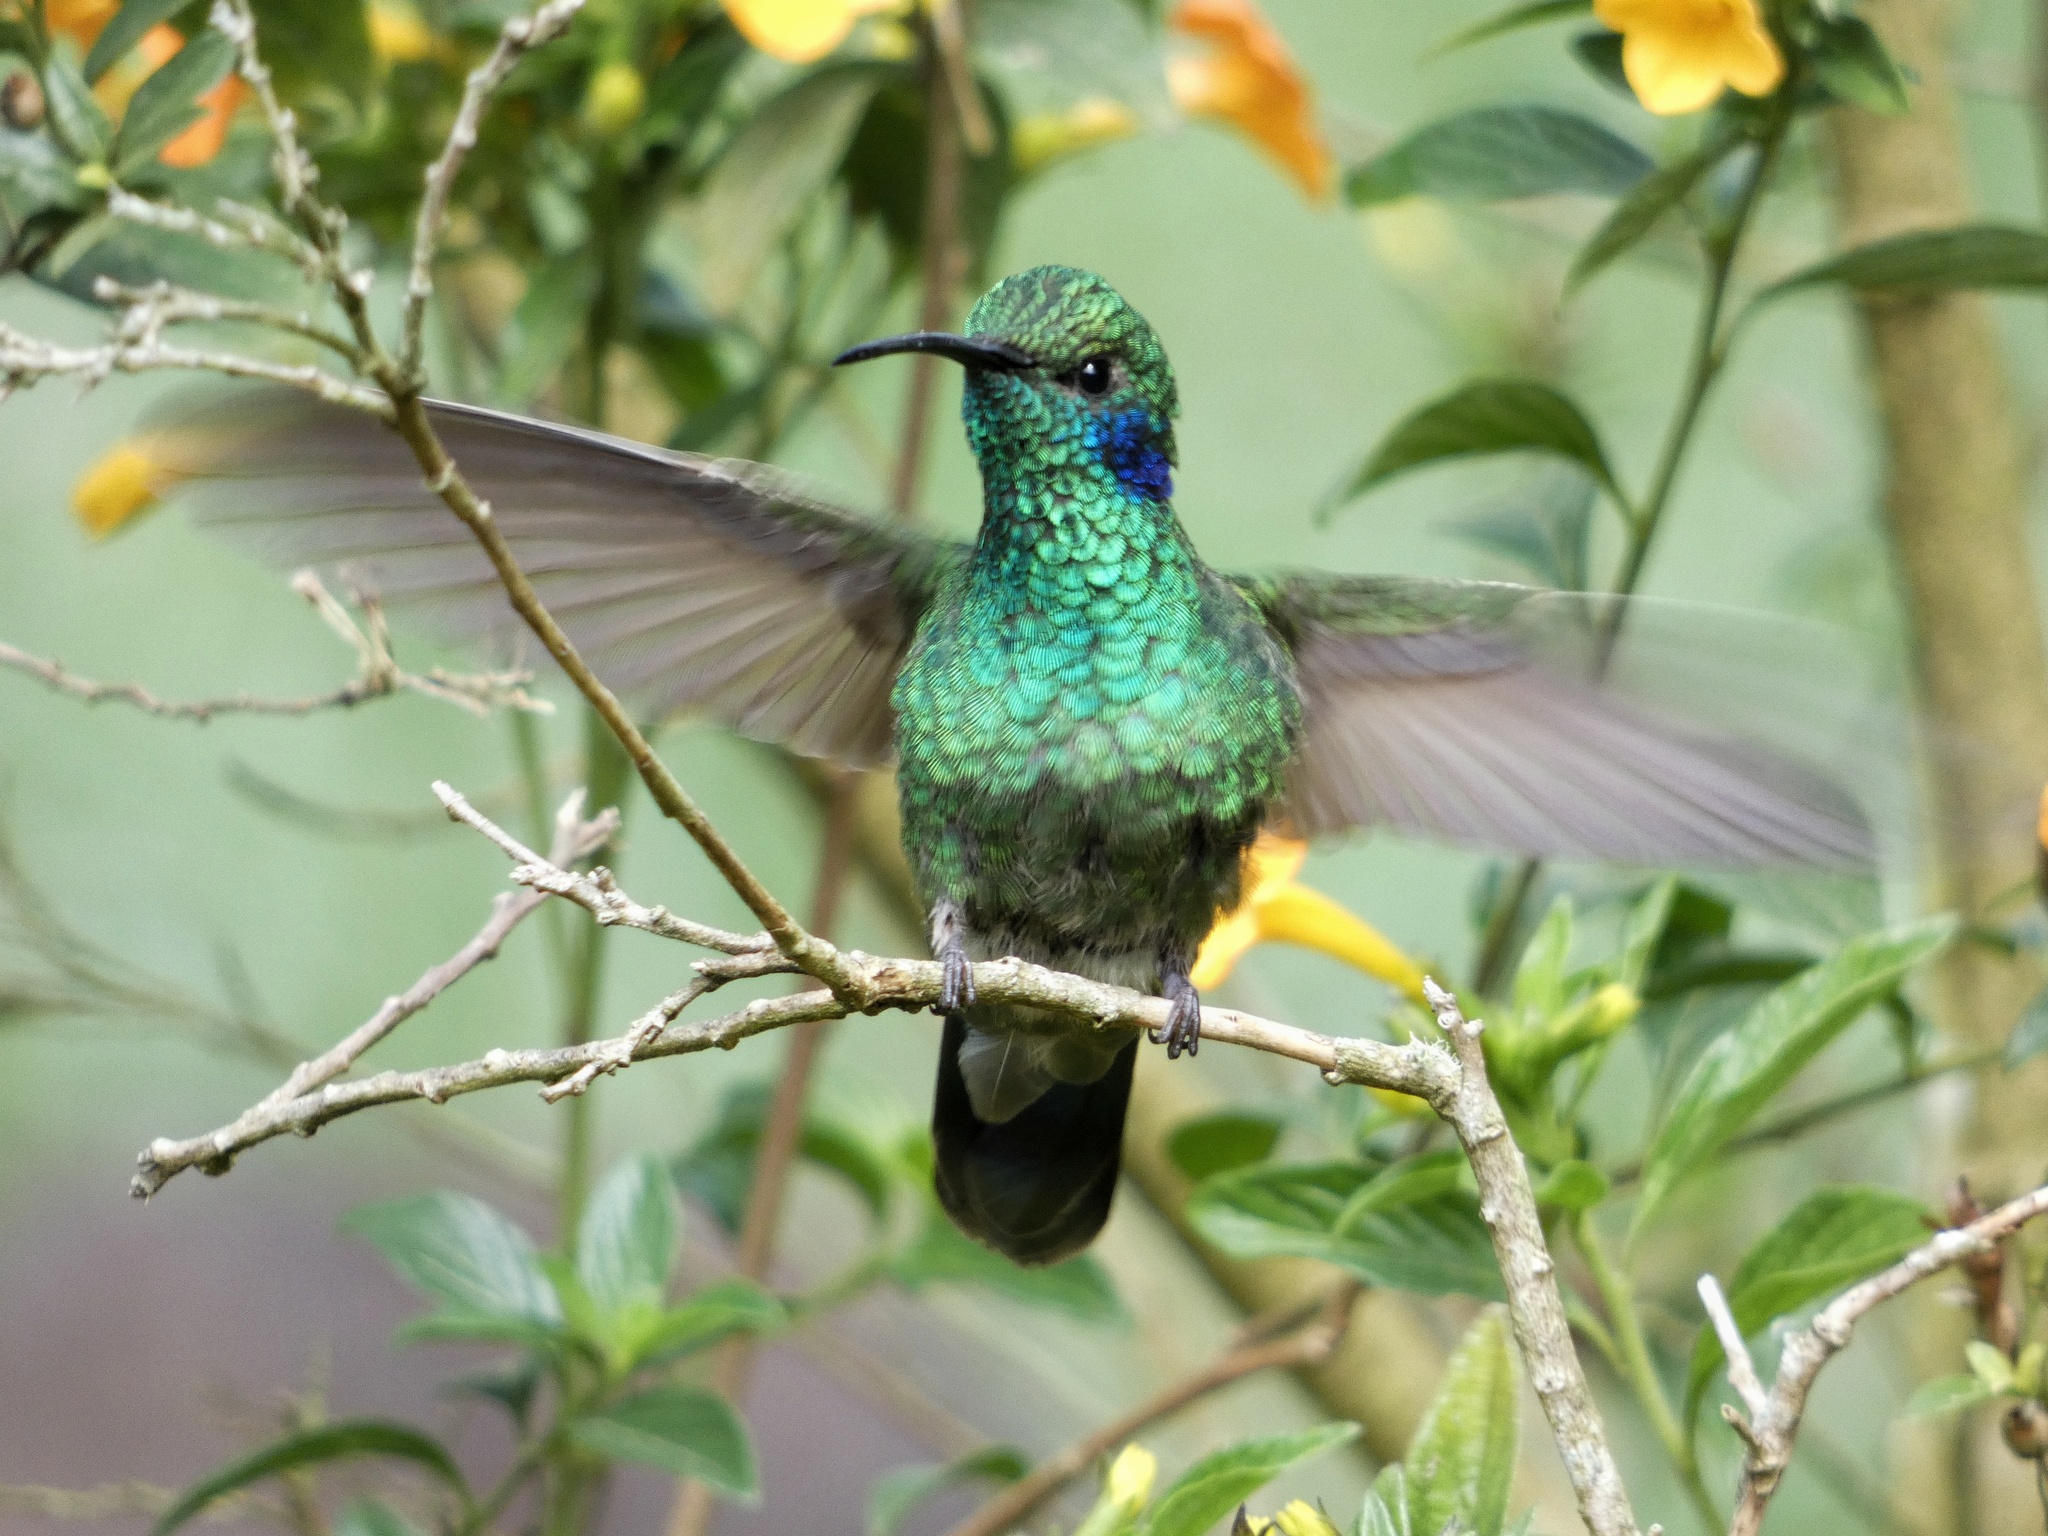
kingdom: Animalia
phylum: Chordata
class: Aves
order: Apodiformes
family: Trochilidae
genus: Colibri
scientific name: Colibri cyanotus
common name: Lesser violetear
